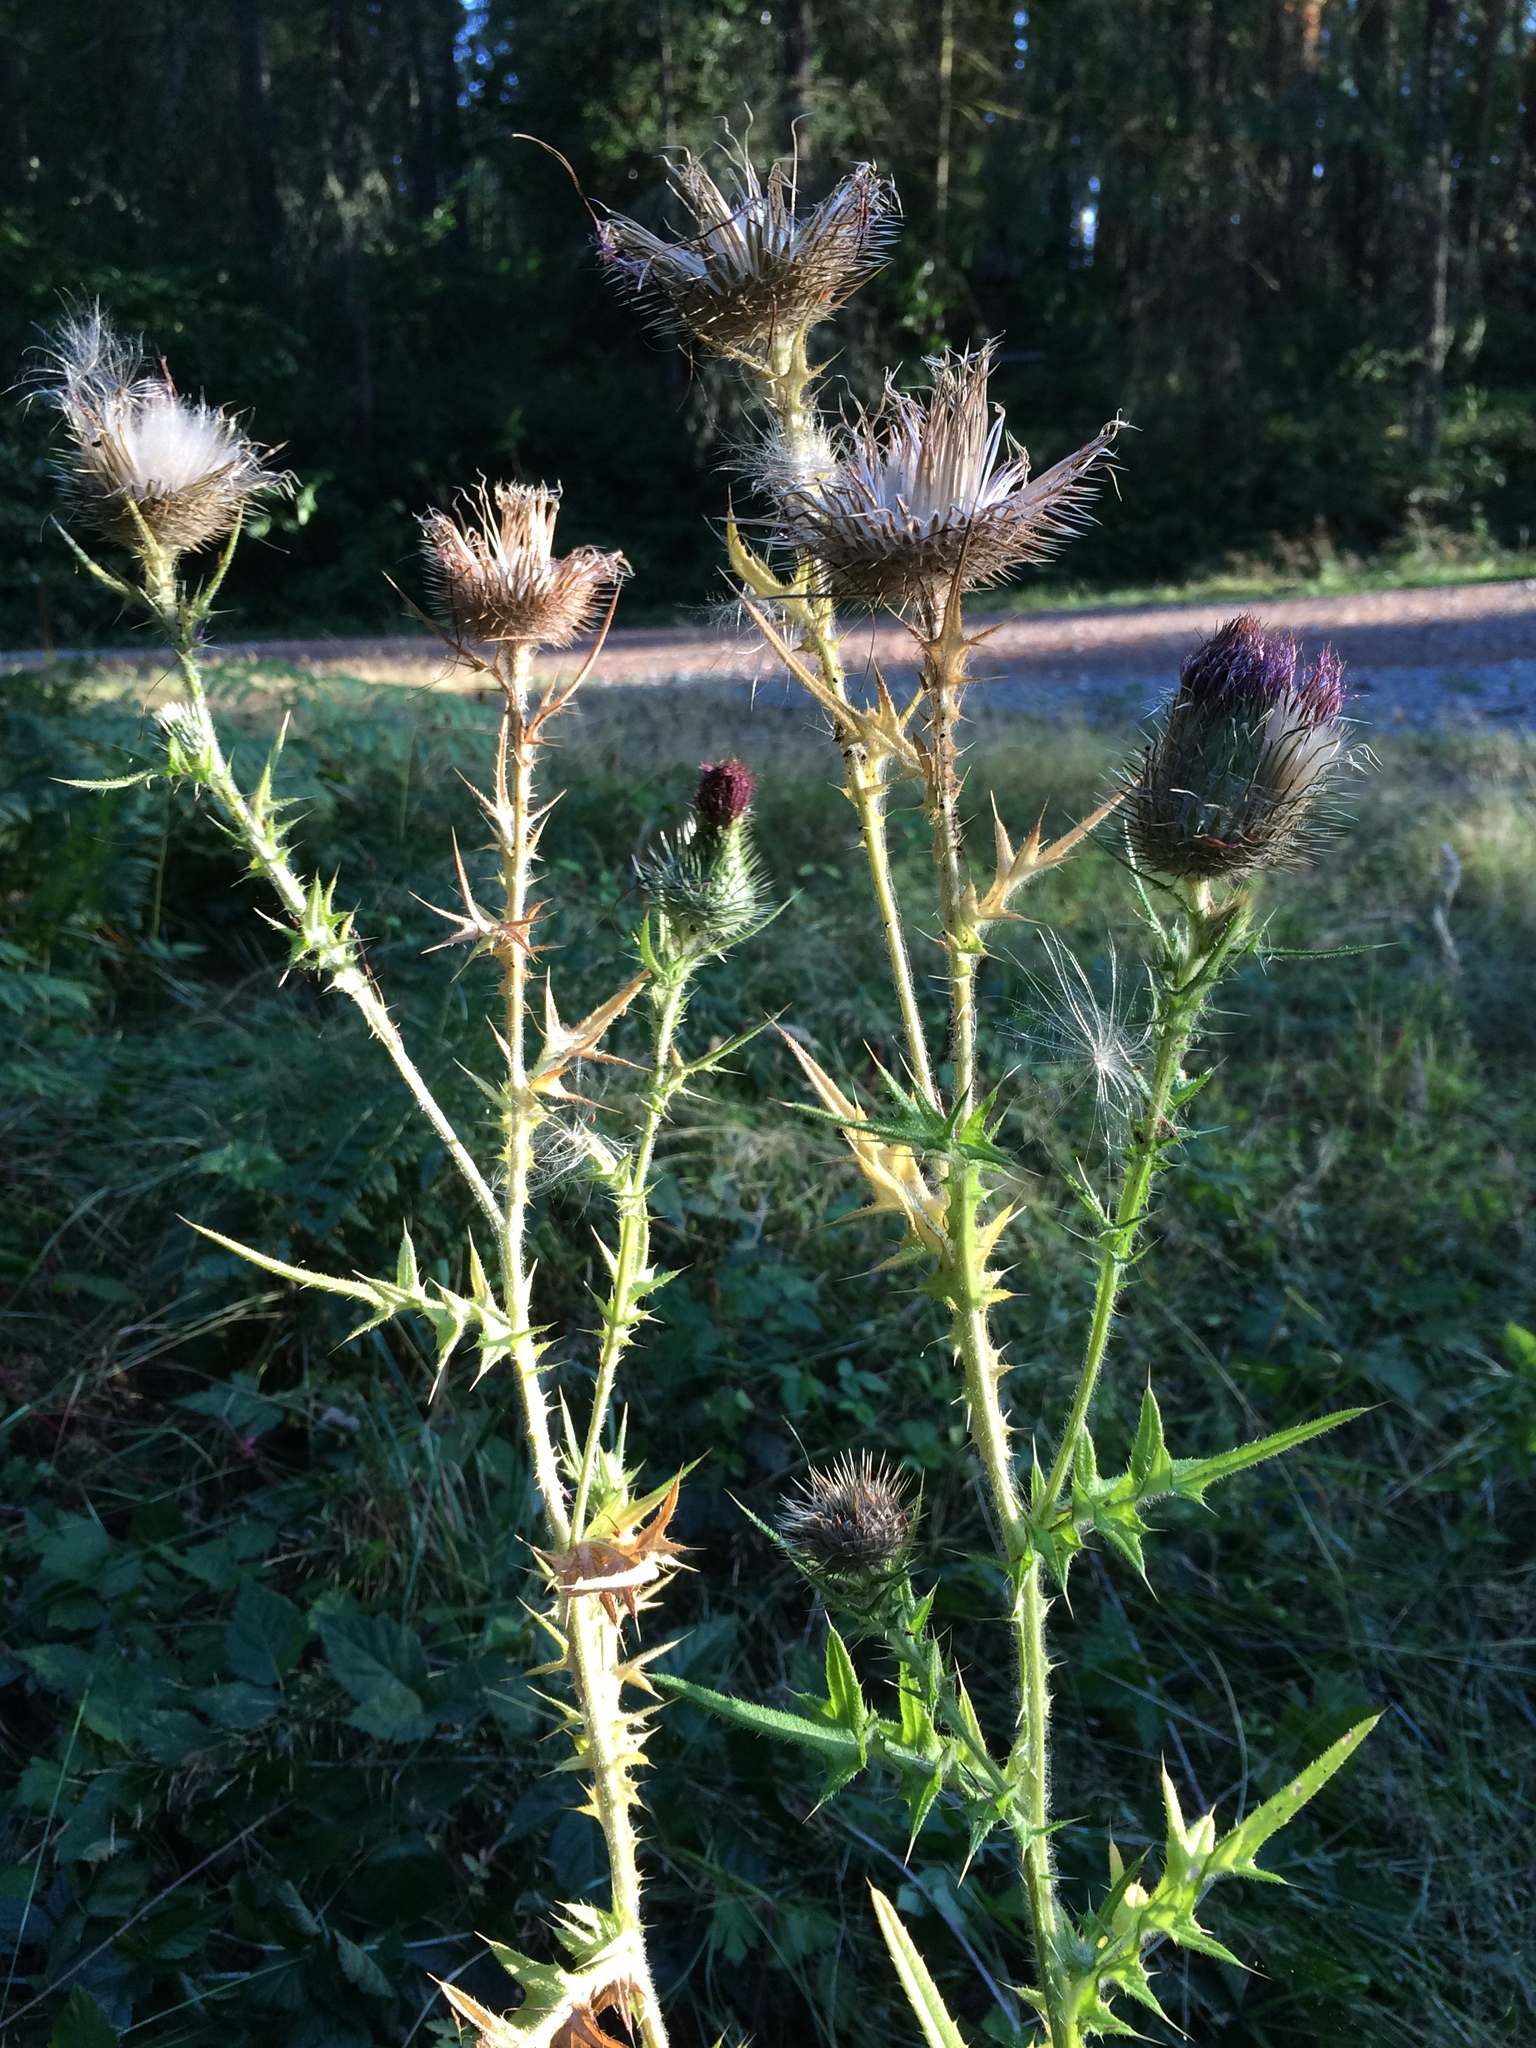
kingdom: Plantae
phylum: Tracheophyta
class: Magnoliopsida
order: Asterales
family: Asteraceae
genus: Cirsium
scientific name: Cirsium vulgare
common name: Bull thistle
